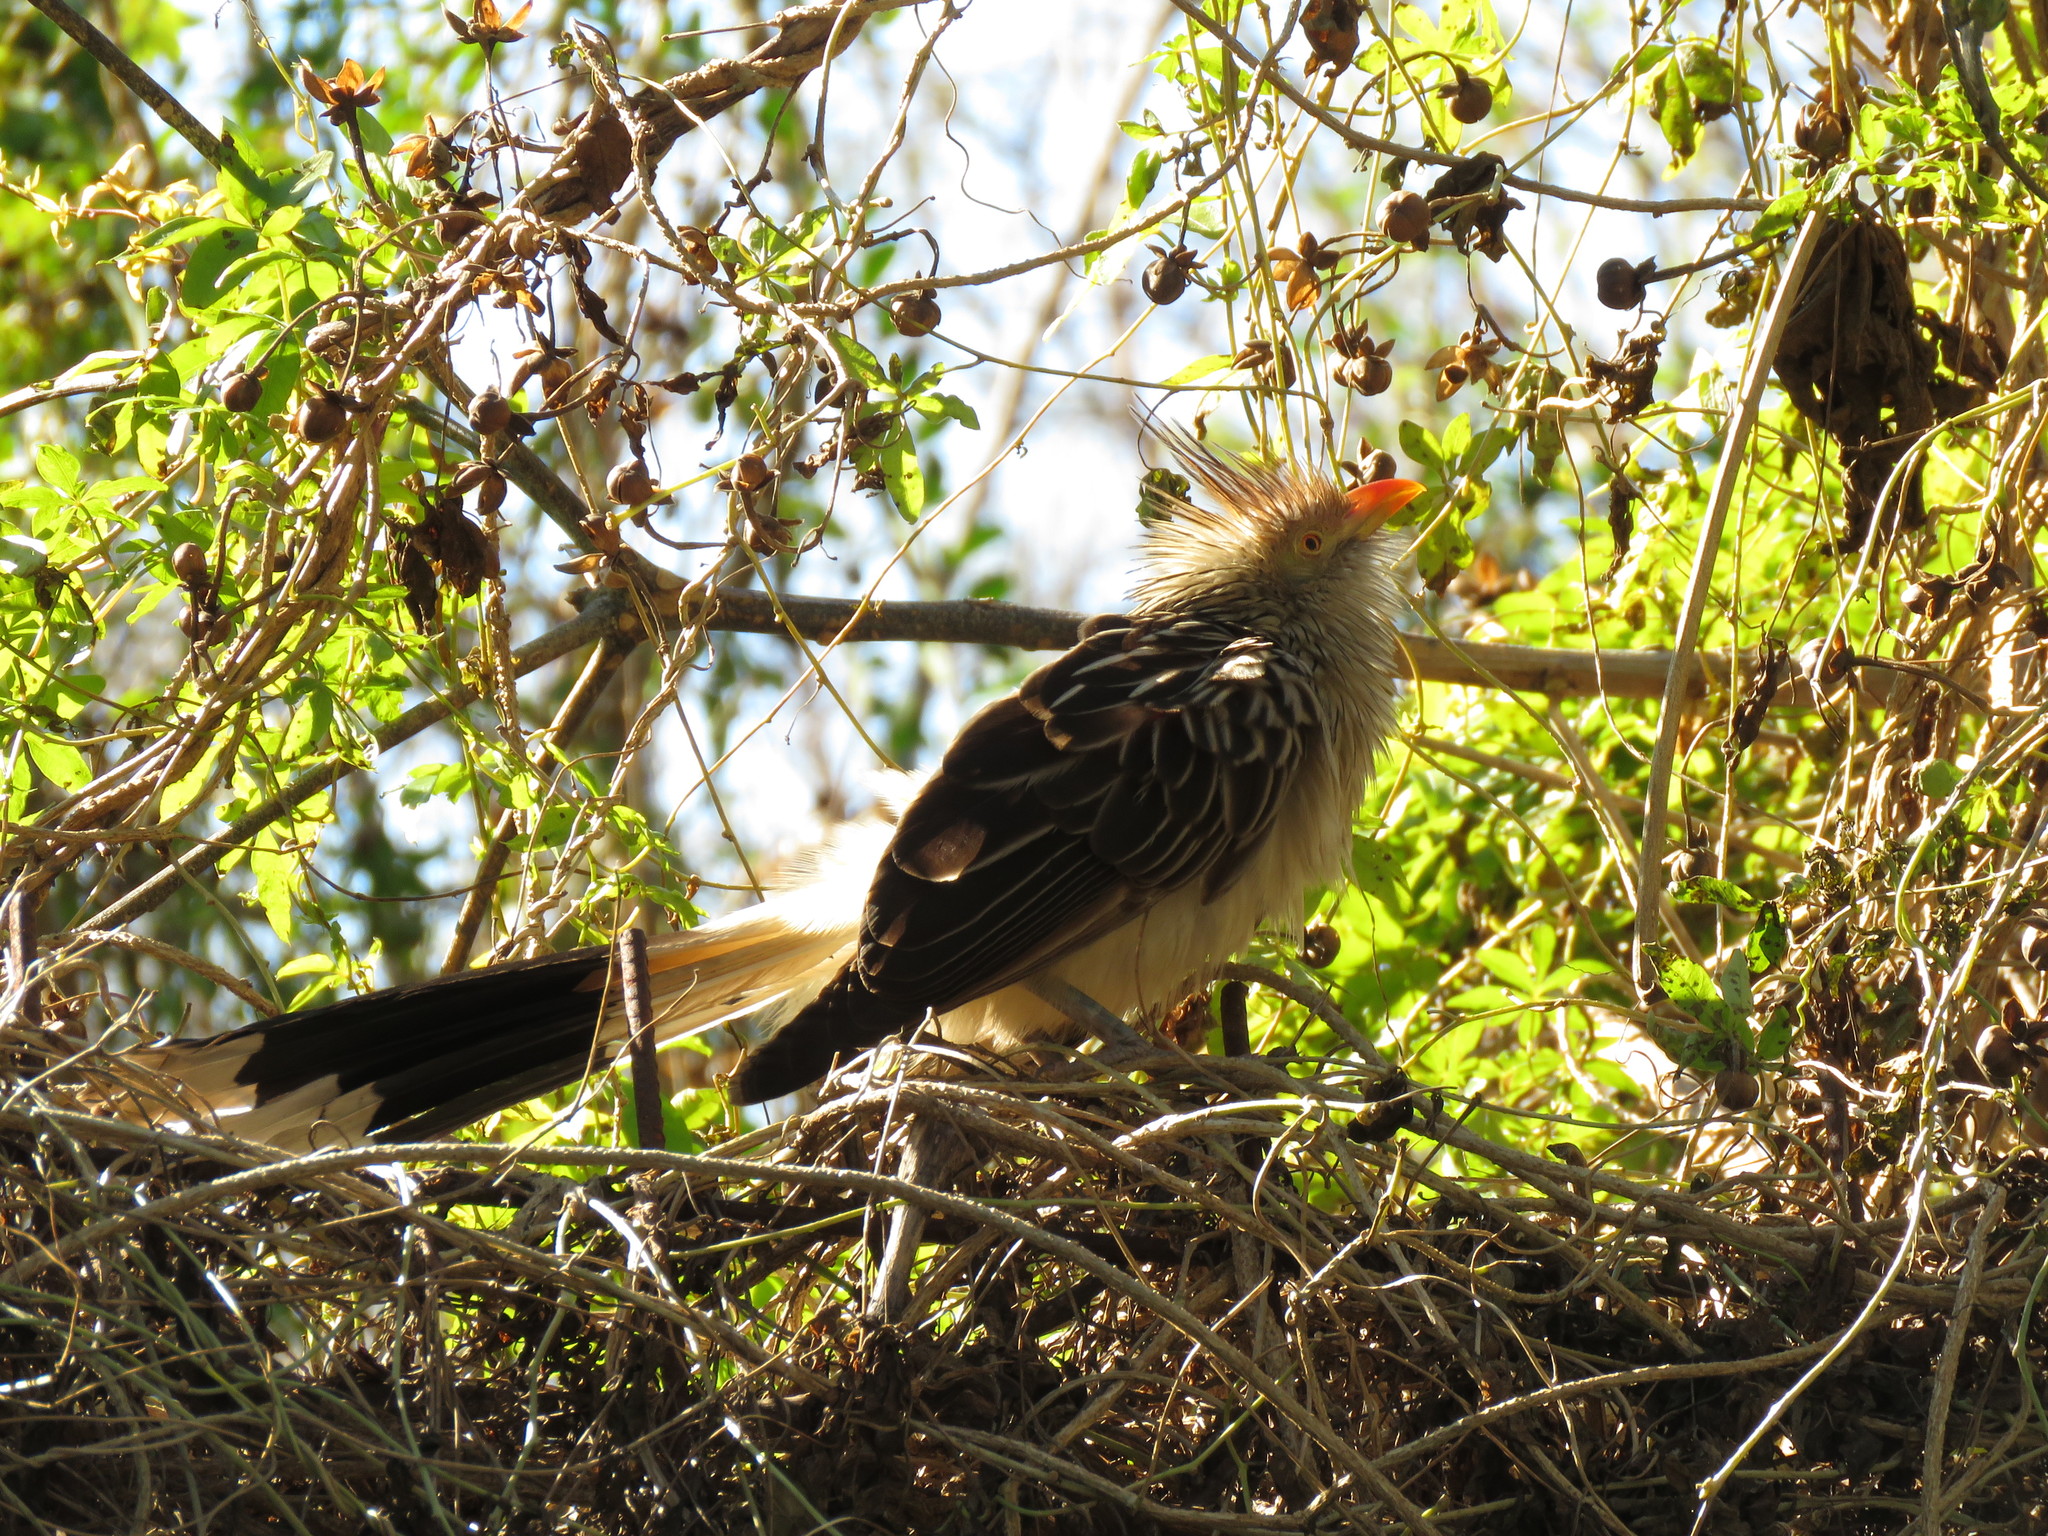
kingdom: Animalia
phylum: Chordata
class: Aves
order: Cuculiformes
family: Cuculidae
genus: Guira
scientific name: Guira guira
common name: Guira cuckoo
